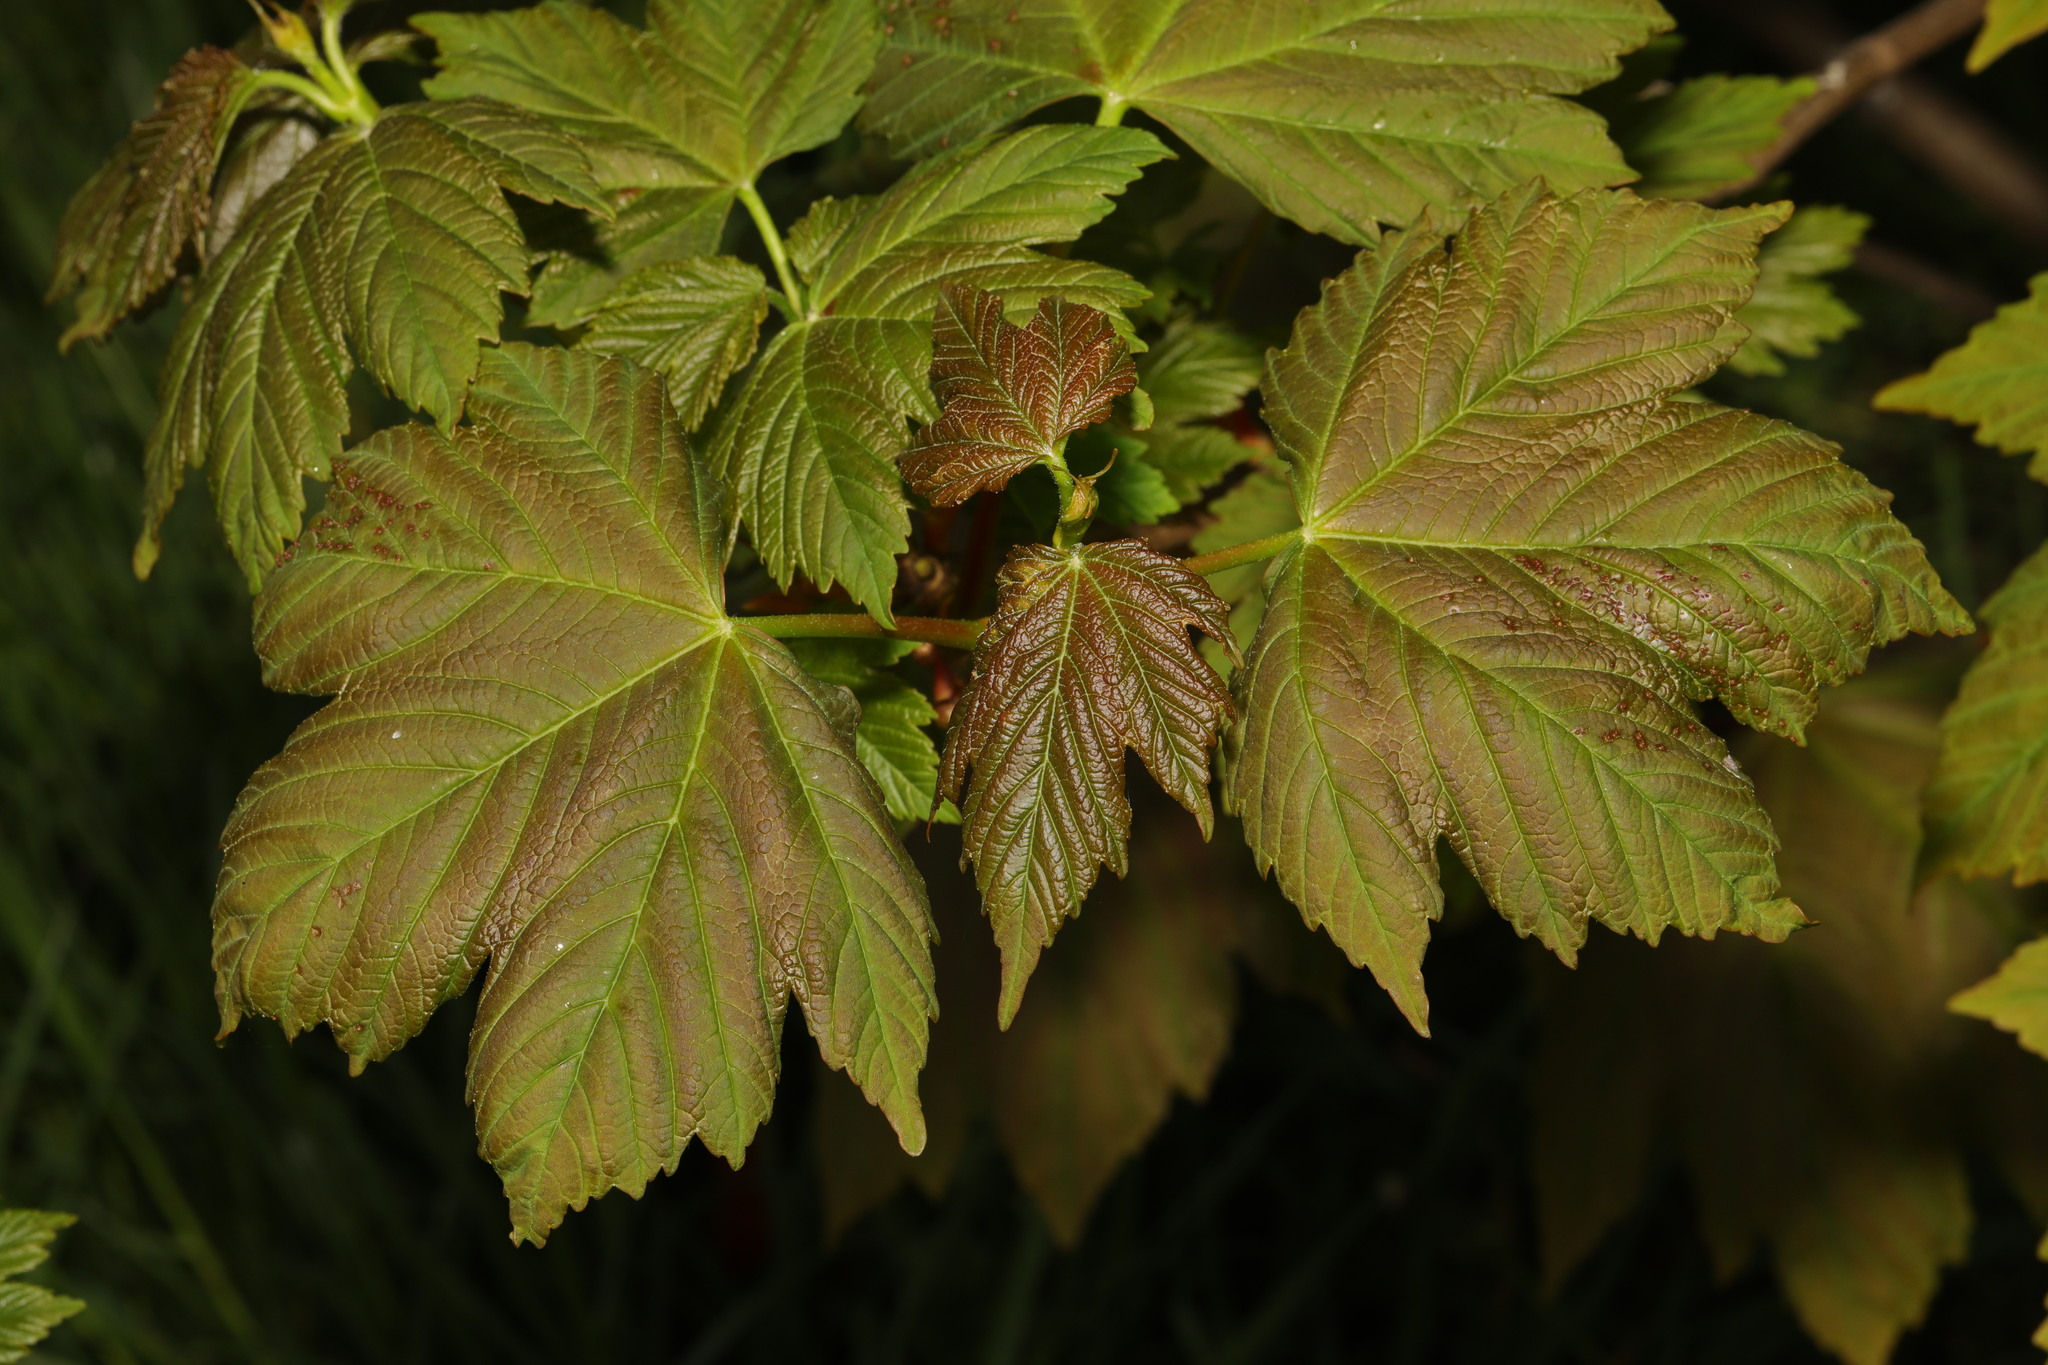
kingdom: Plantae
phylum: Tracheophyta
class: Magnoliopsida
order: Sapindales
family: Sapindaceae
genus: Acer
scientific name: Acer pseudoplatanus
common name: Sycamore
